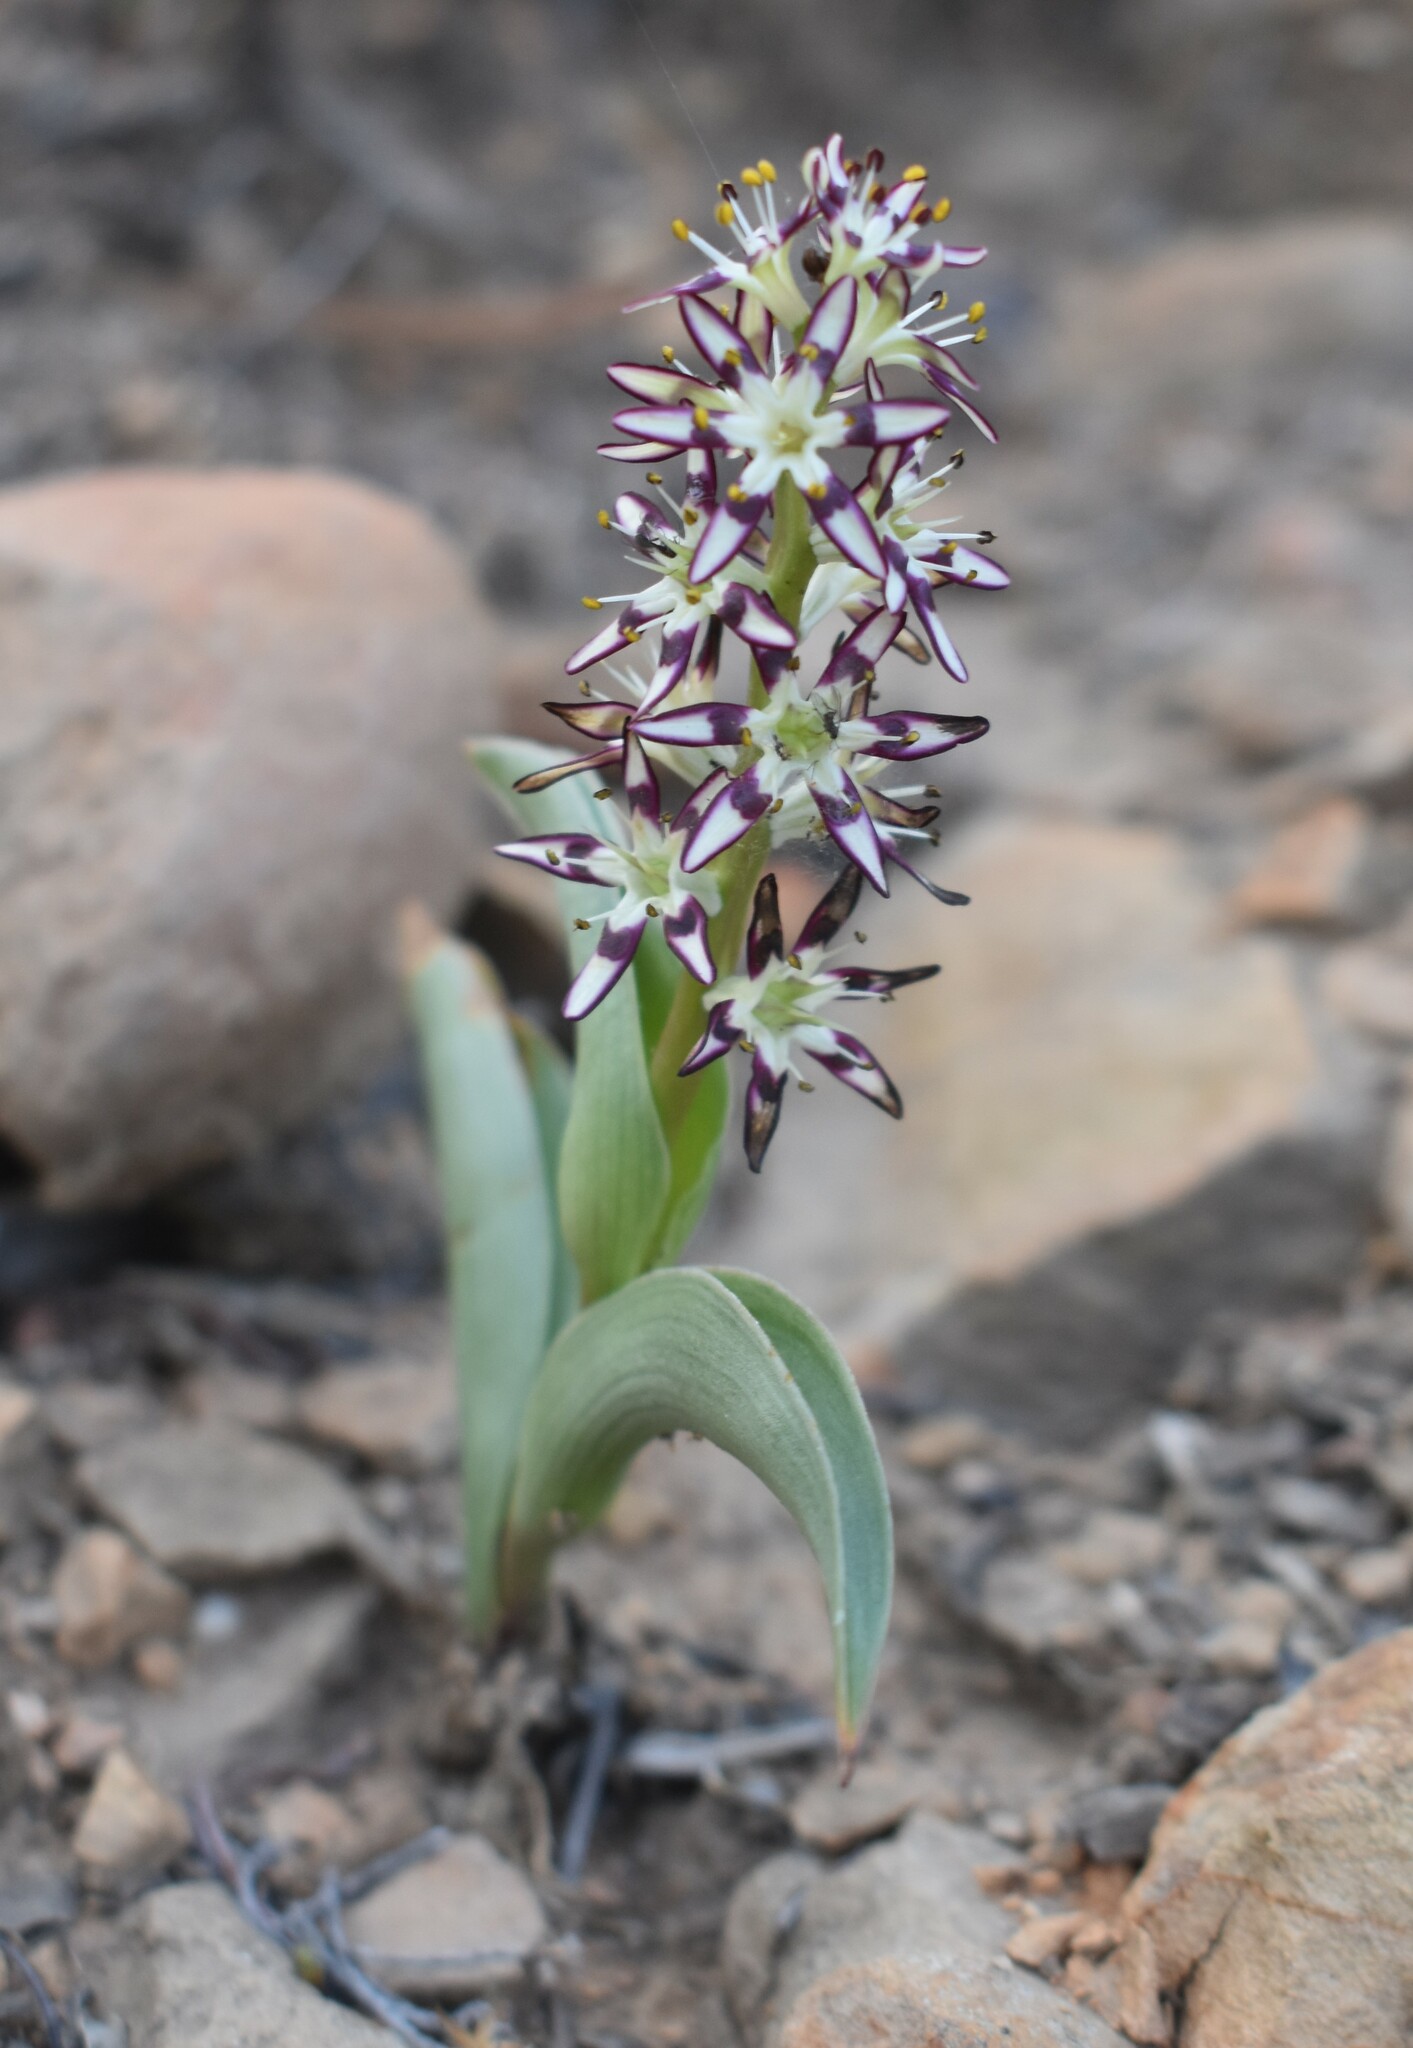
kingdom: Plantae
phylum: Tracheophyta
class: Liliopsida
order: Liliales
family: Colchicaceae
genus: Wurmbea
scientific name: Wurmbea variabilis
